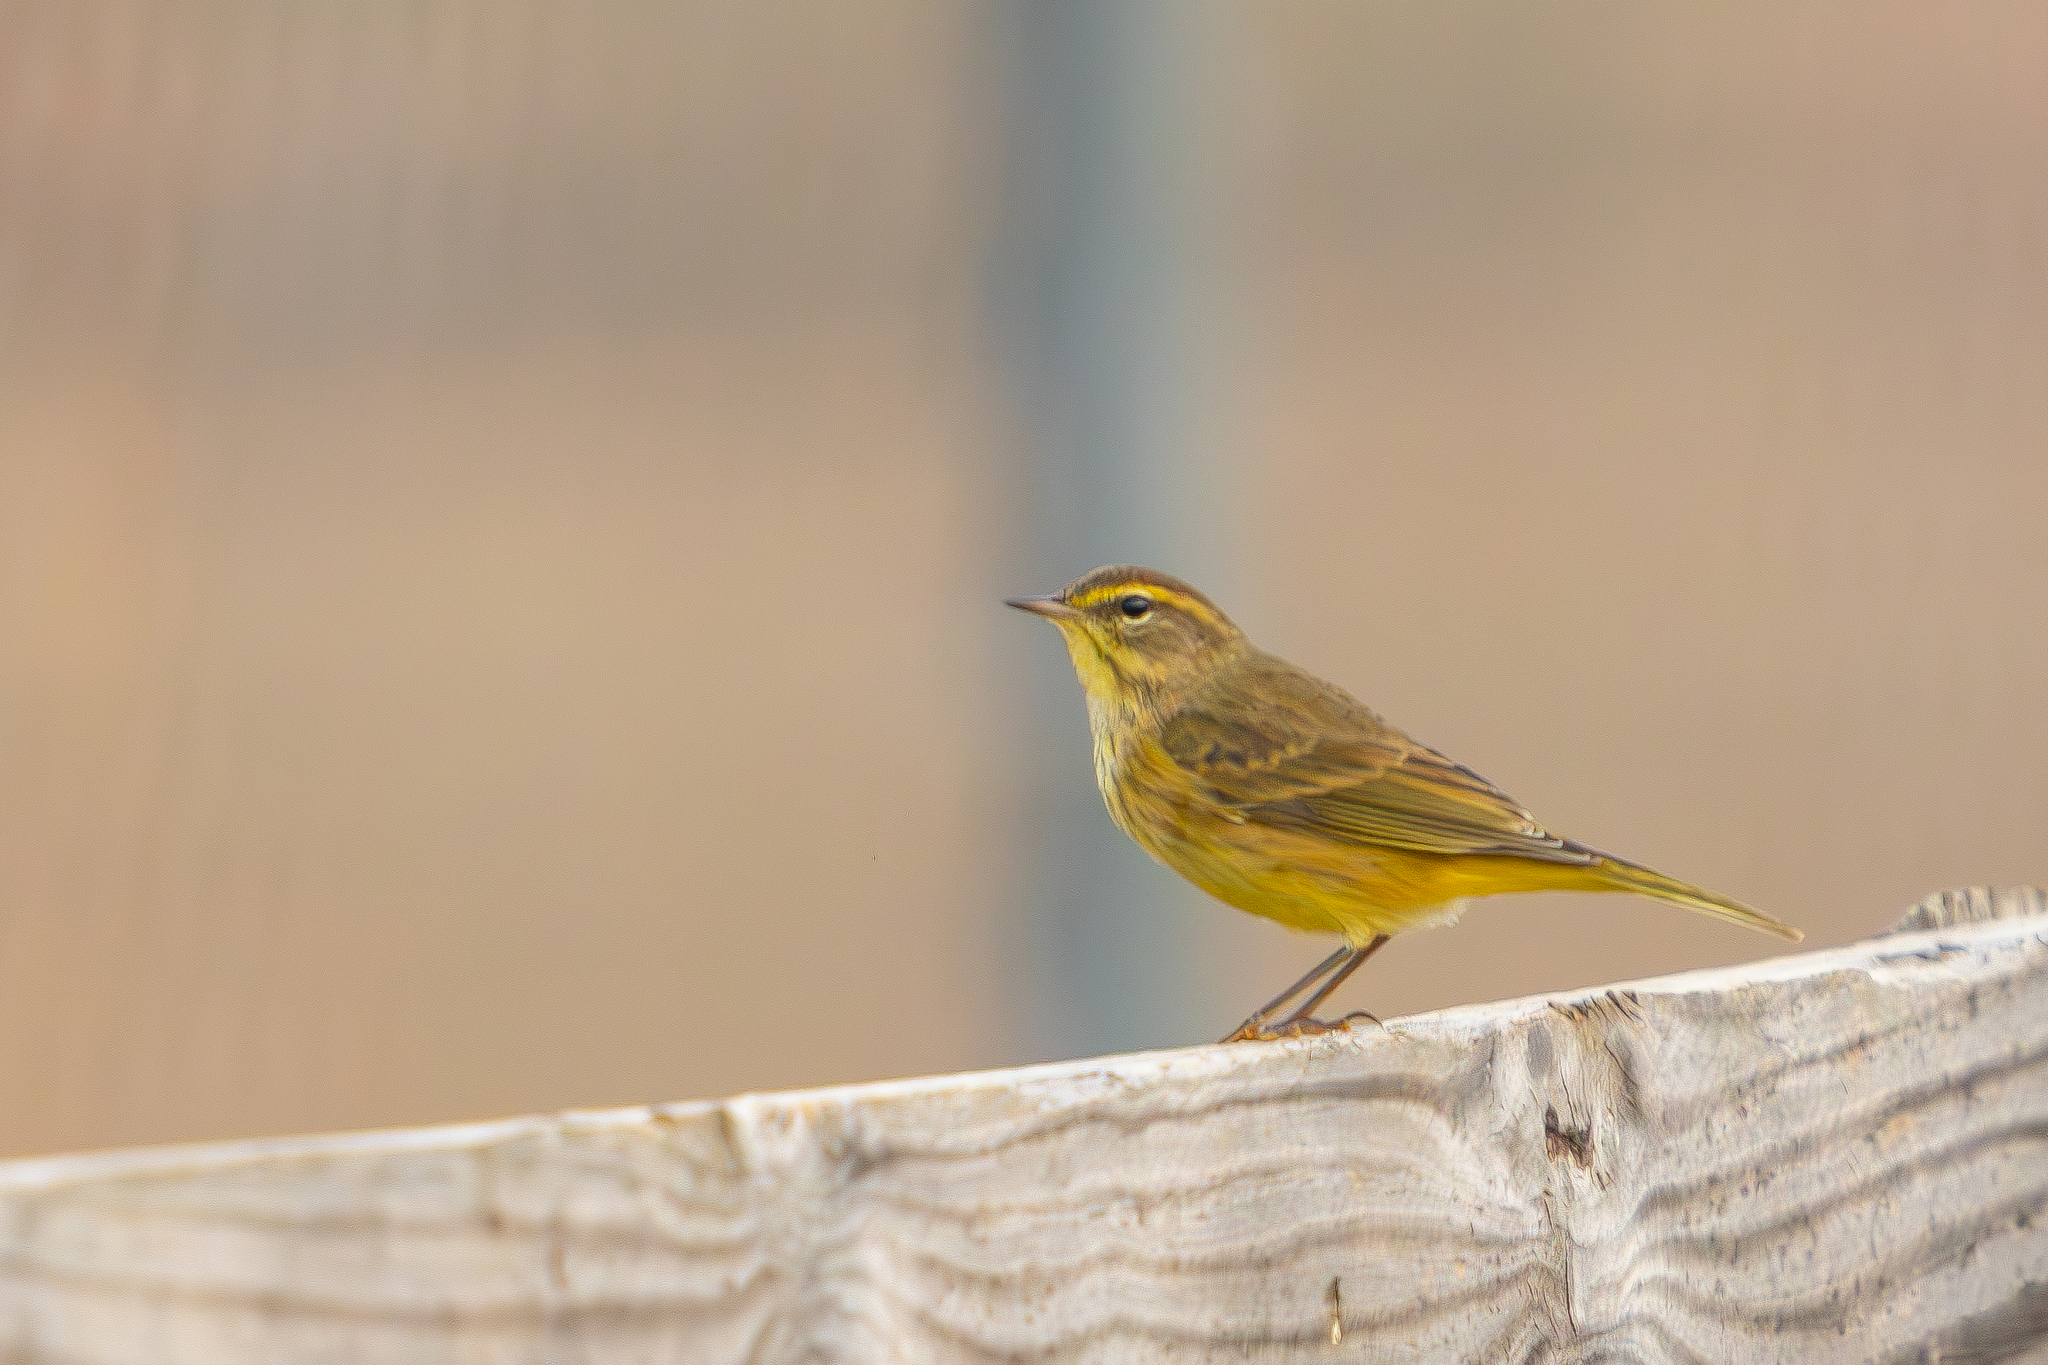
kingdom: Animalia
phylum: Chordata
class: Aves
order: Passeriformes
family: Parulidae
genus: Setophaga
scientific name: Setophaga palmarum
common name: Palm warbler
